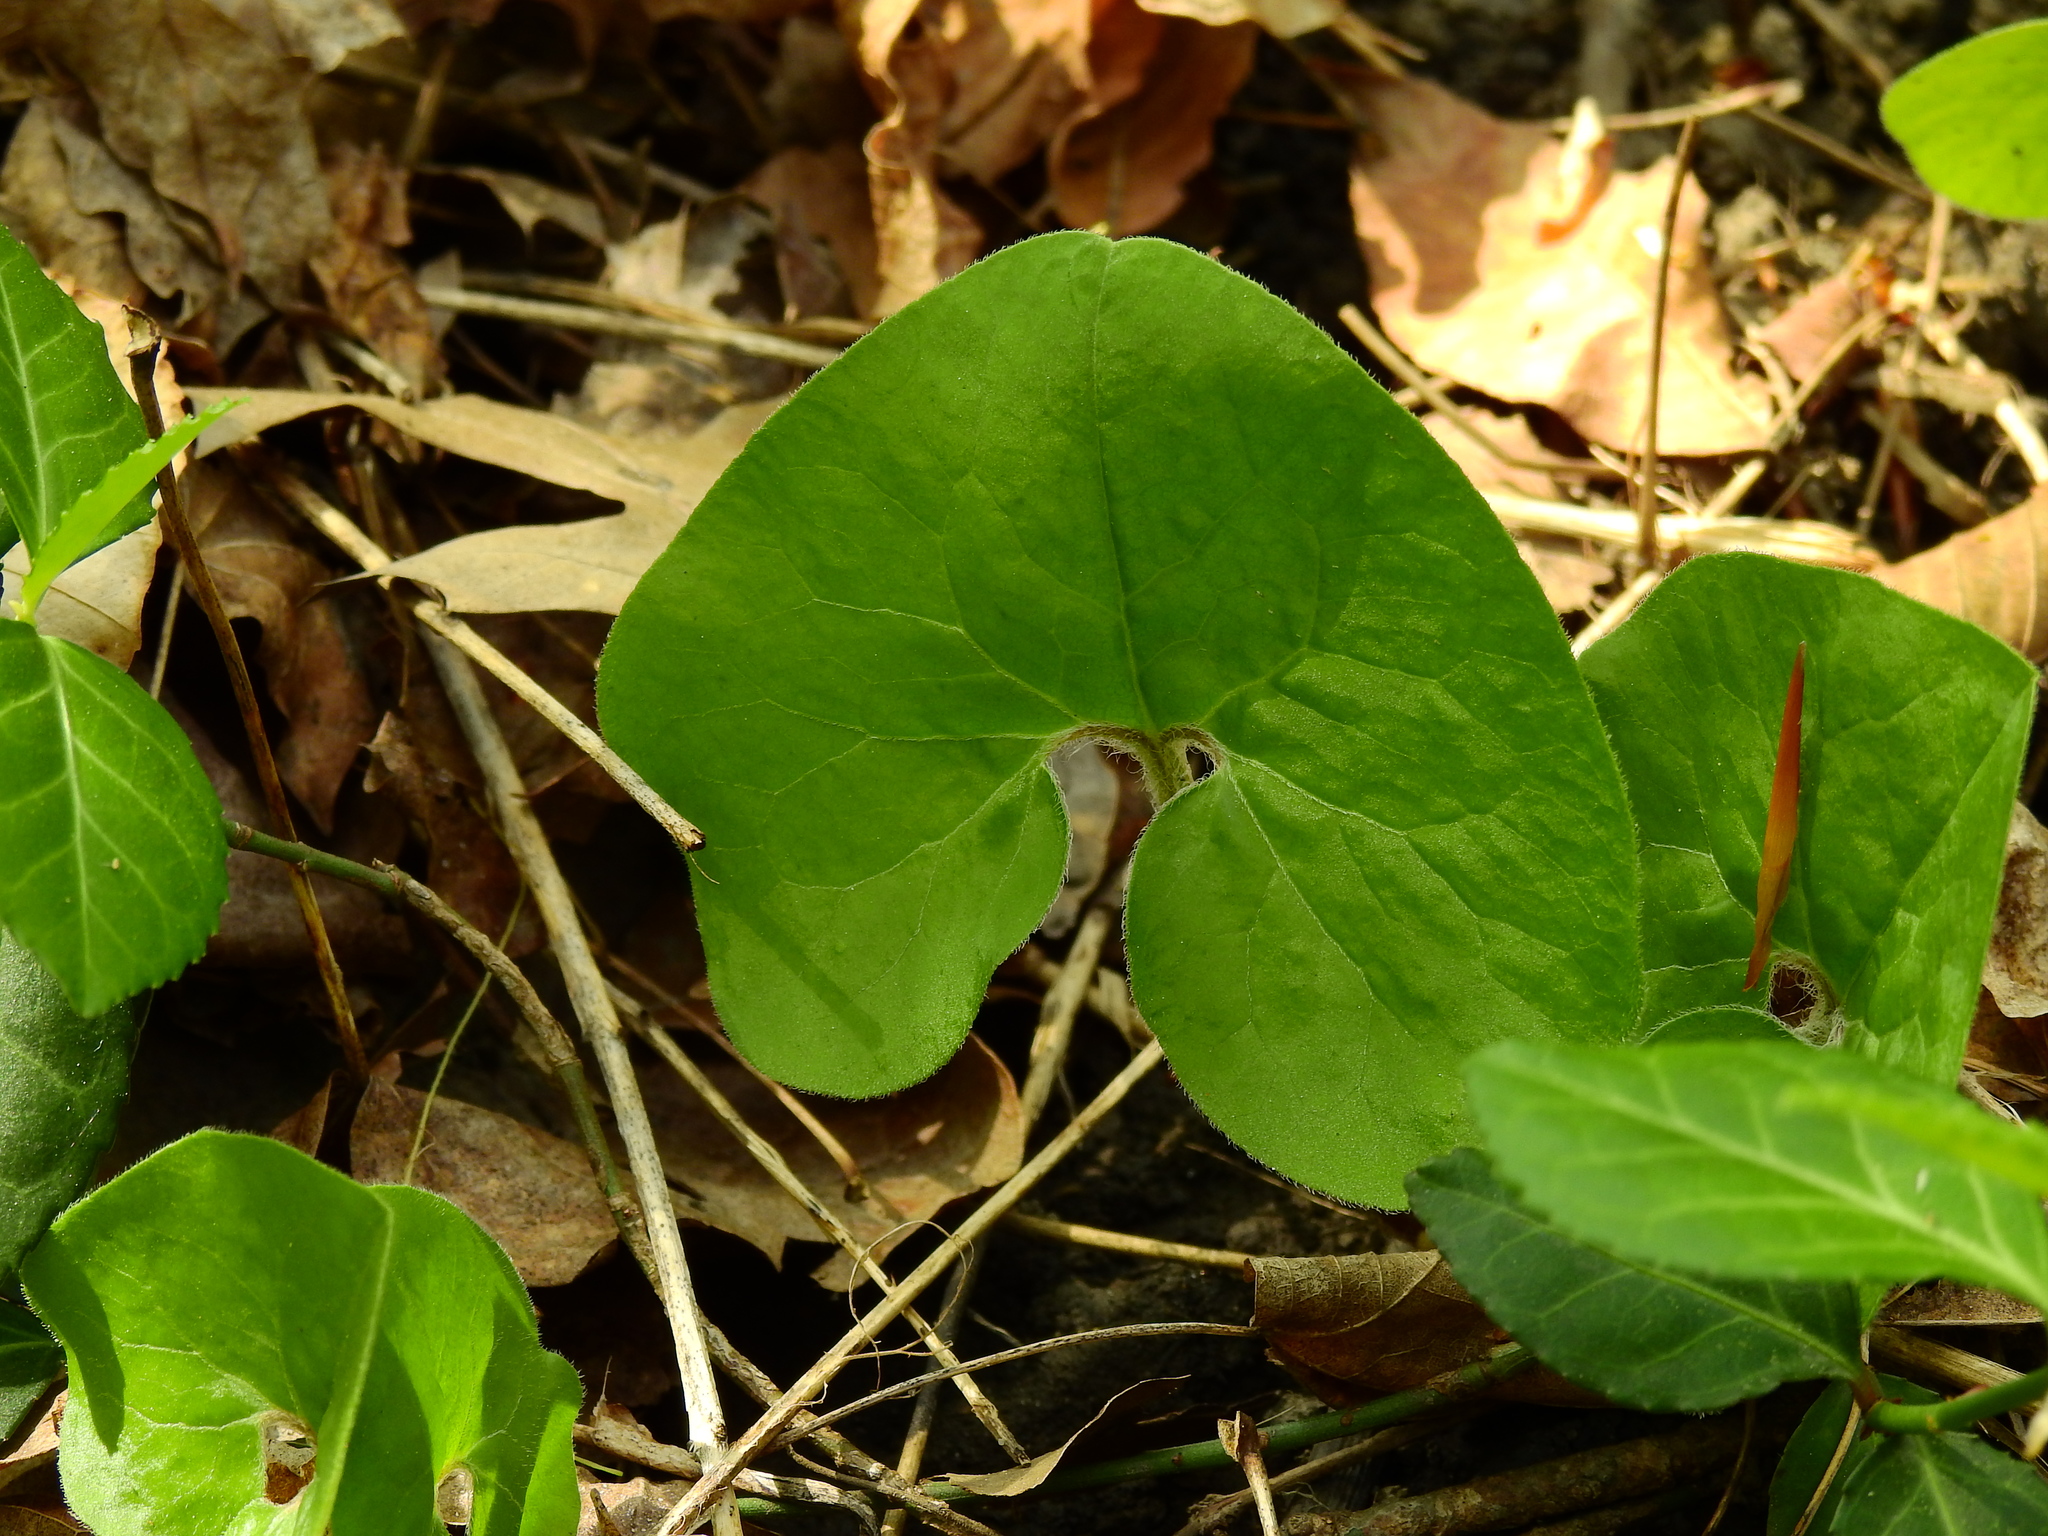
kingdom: Plantae
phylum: Tracheophyta
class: Magnoliopsida
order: Piperales
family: Aristolochiaceae
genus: Asarum
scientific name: Asarum canadense
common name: Wild ginger
